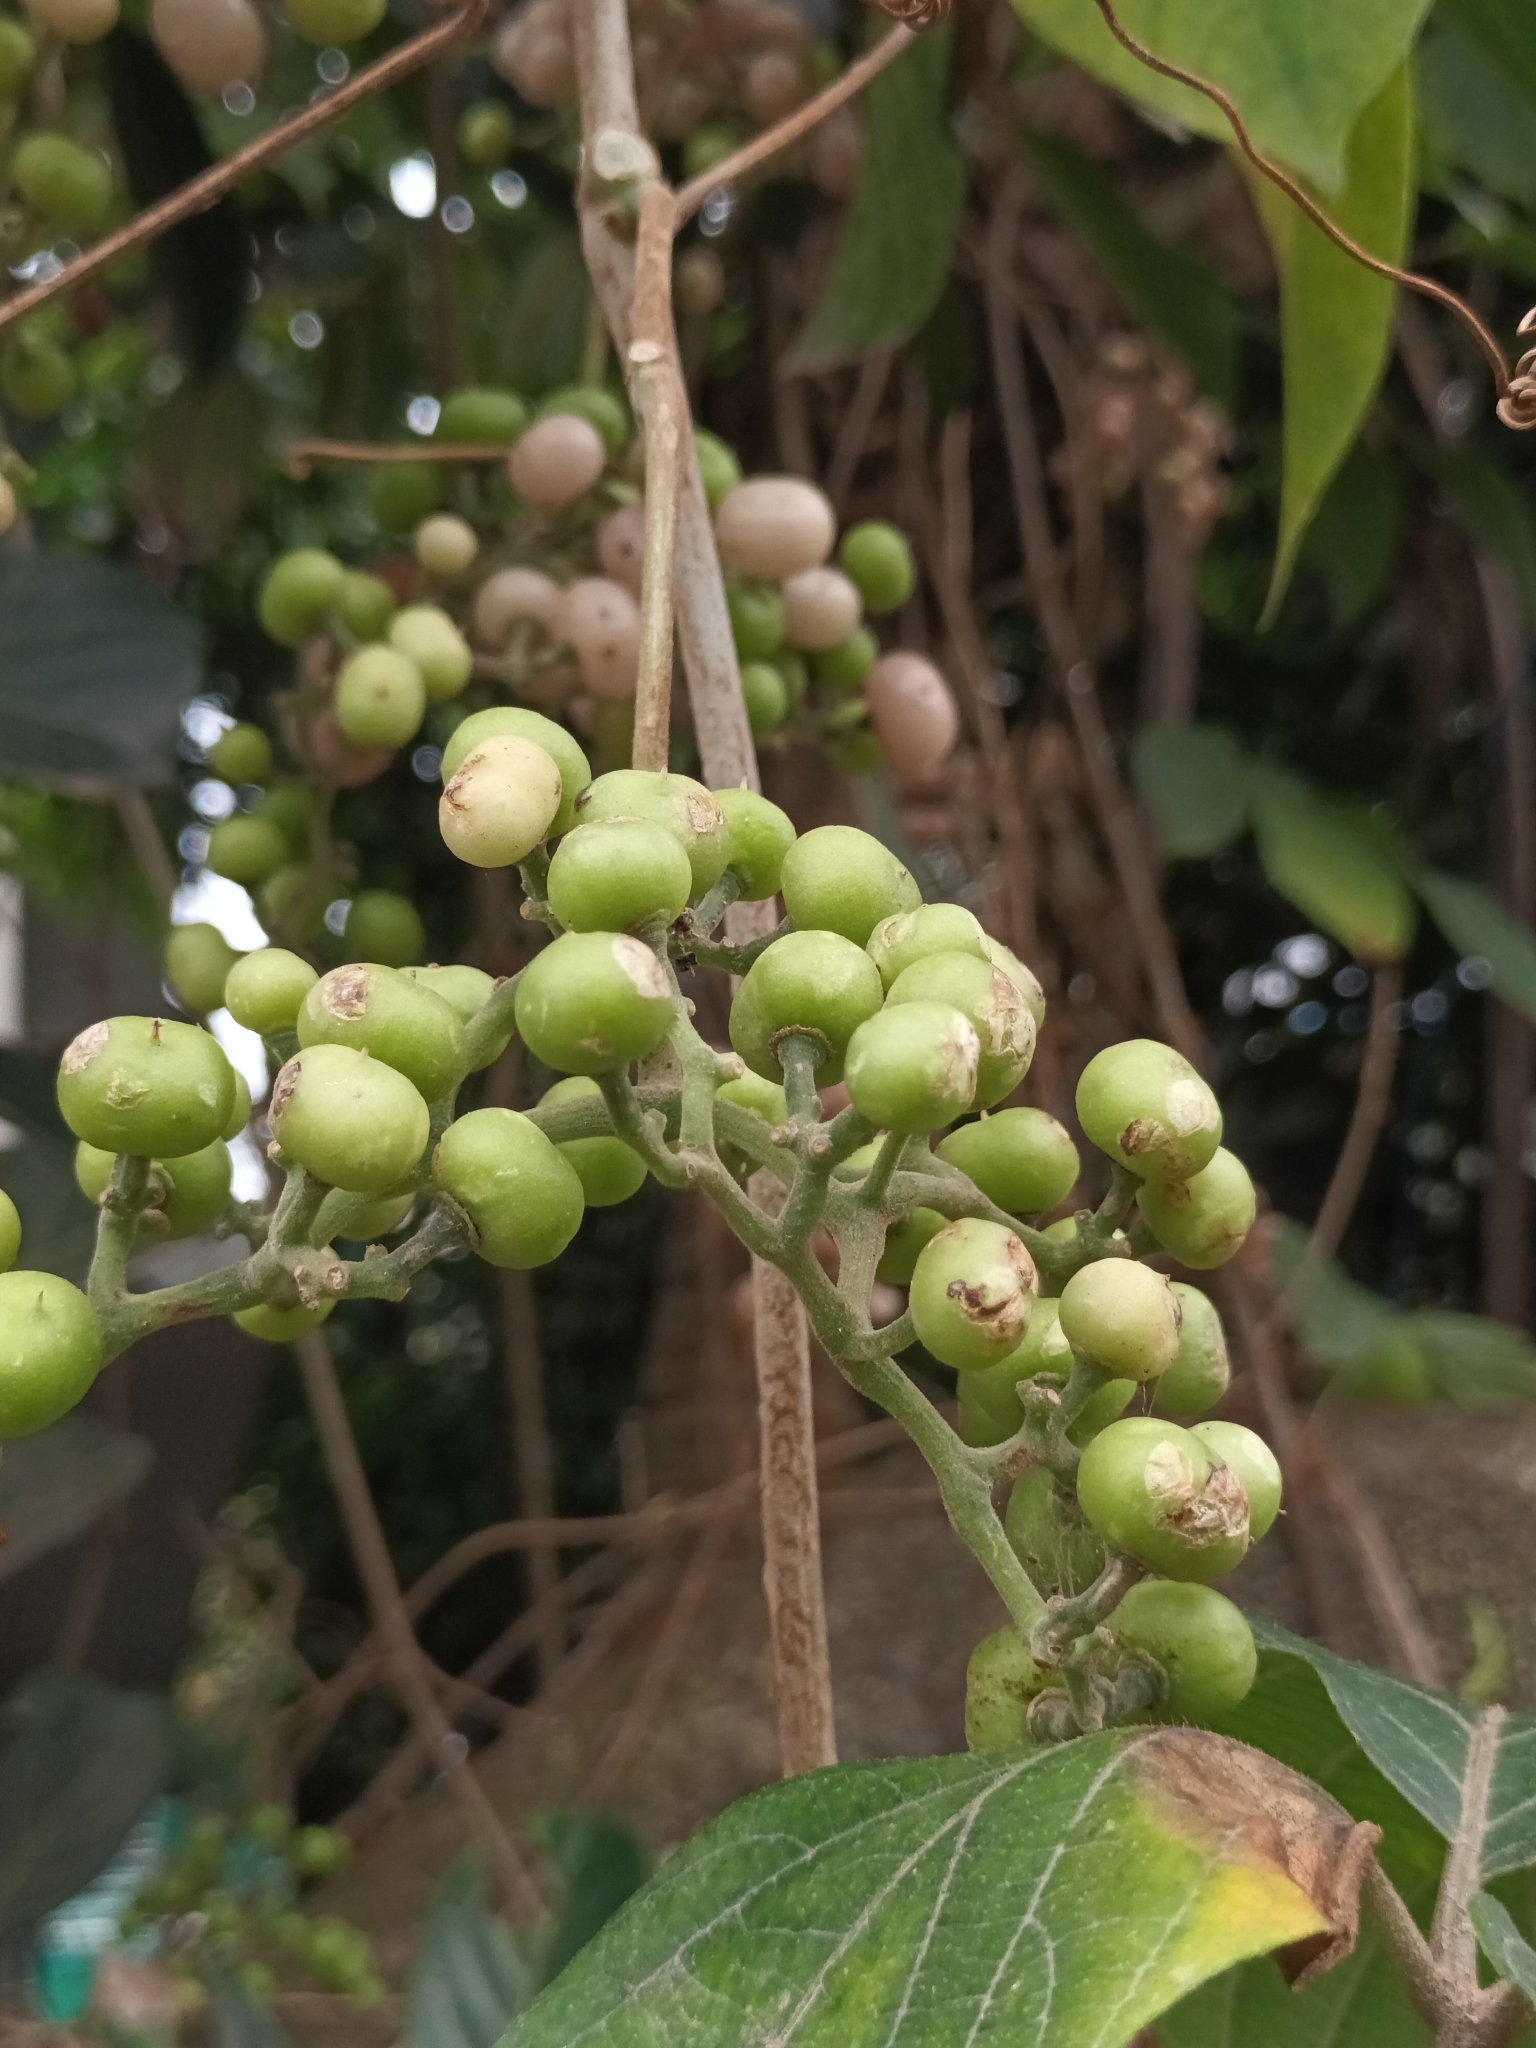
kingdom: Plantae
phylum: Tracheophyta
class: Magnoliopsida
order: Vitales
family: Vitaceae
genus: Cayratia
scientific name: Cayratia pedata
